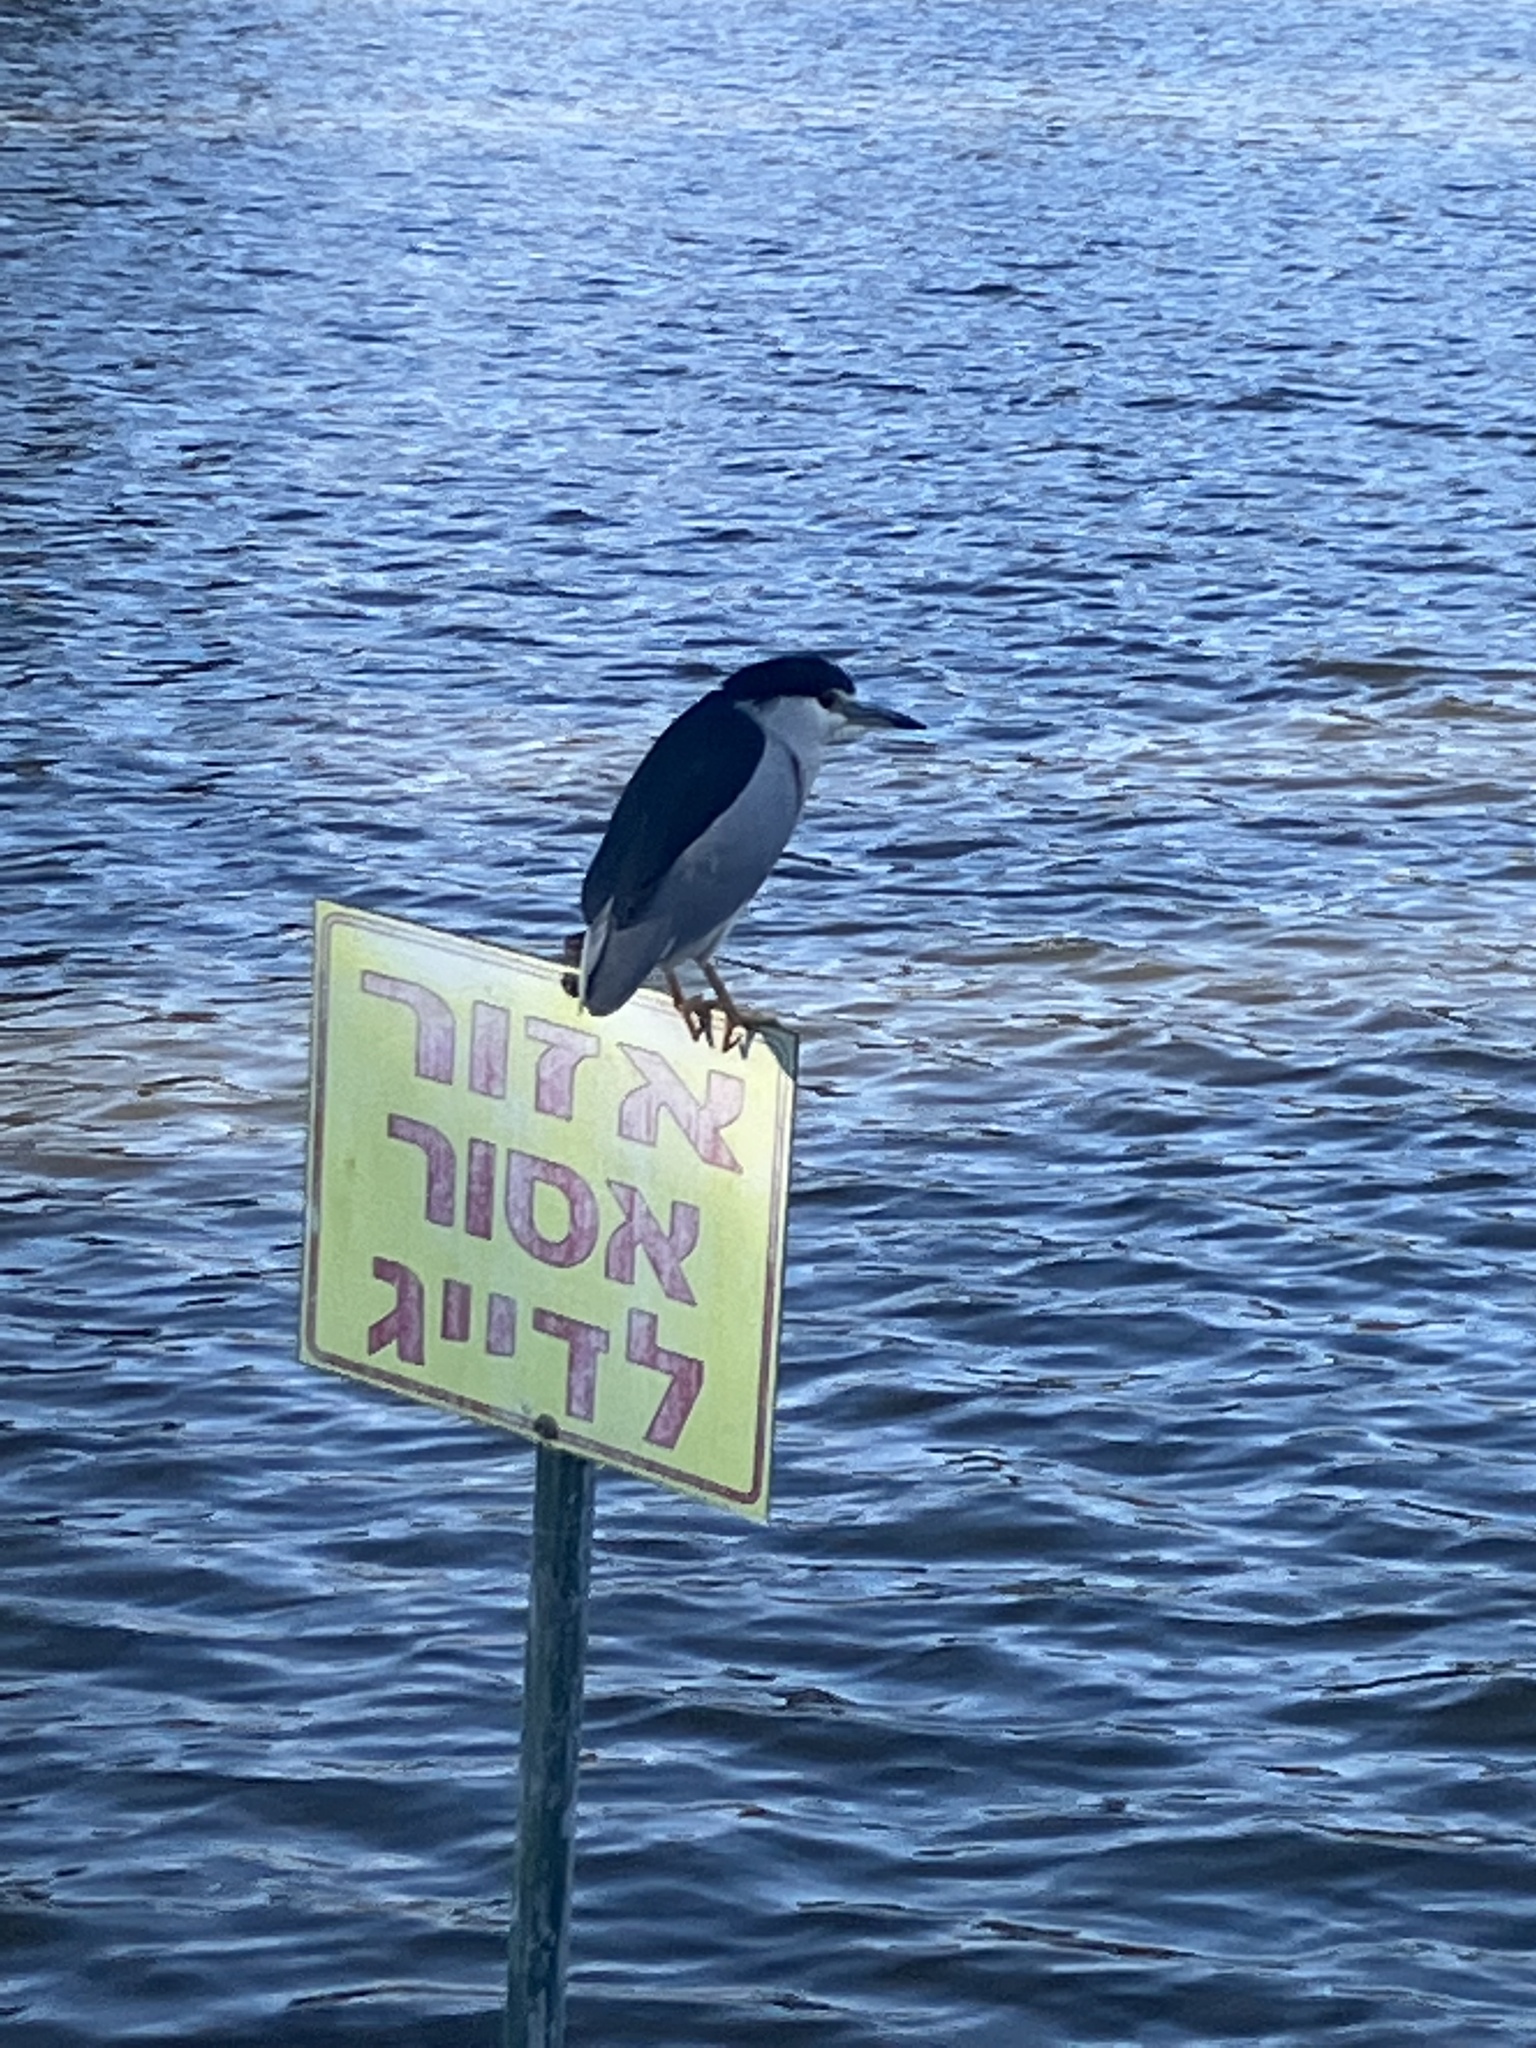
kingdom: Animalia
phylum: Chordata
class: Aves
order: Pelecaniformes
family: Ardeidae
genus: Nycticorax
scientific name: Nycticorax nycticorax
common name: Black-crowned night heron
